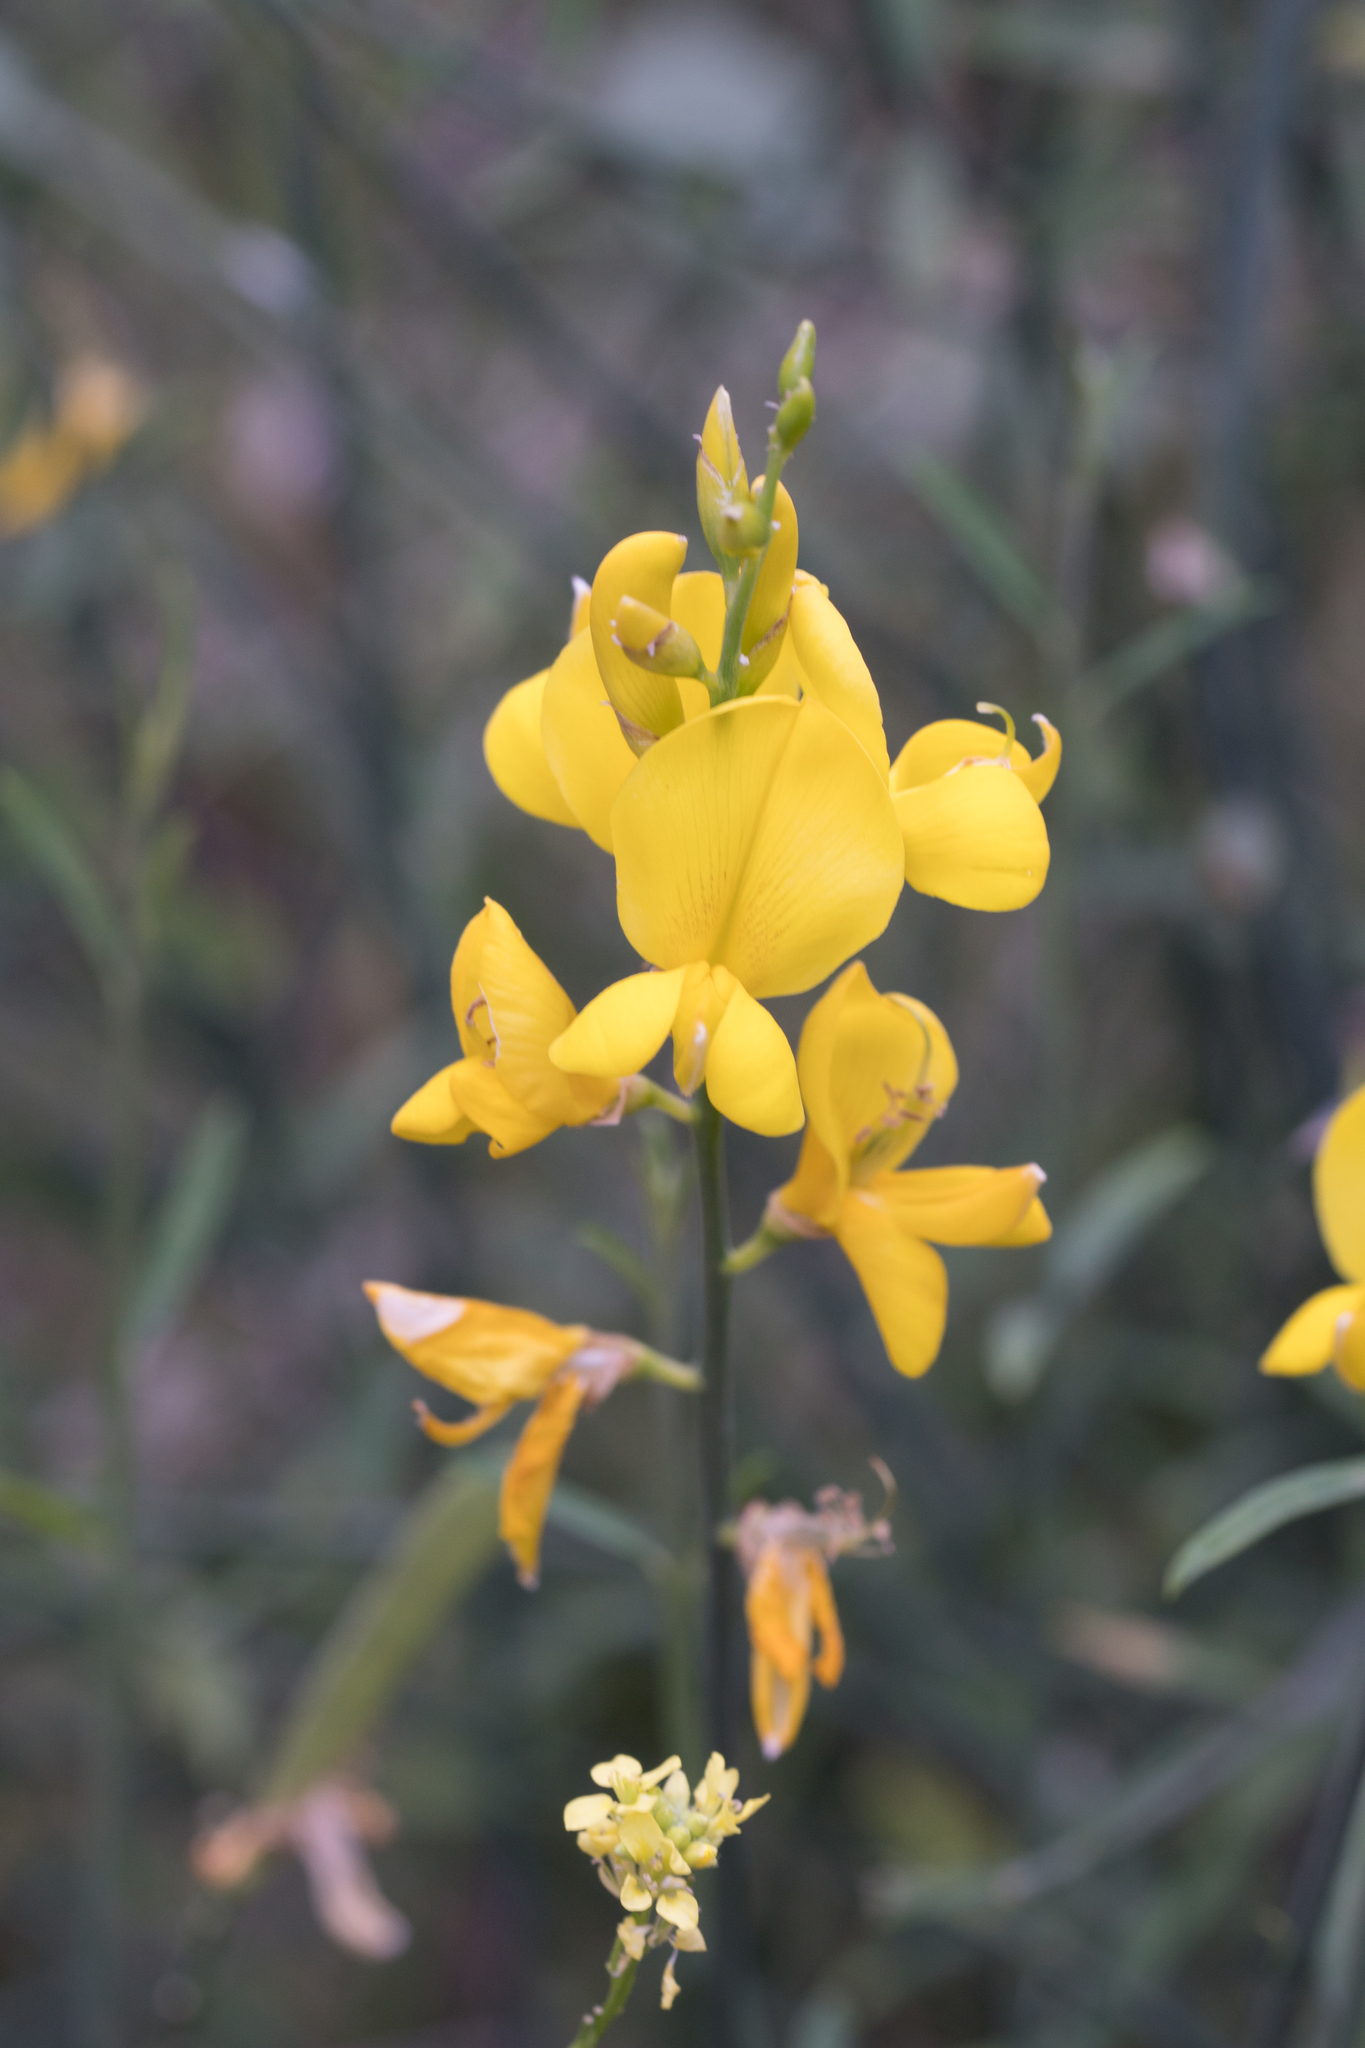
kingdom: Plantae
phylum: Tracheophyta
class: Magnoliopsida
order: Fabales
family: Fabaceae
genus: Spartium
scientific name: Spartium junceum
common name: Spanish broom
